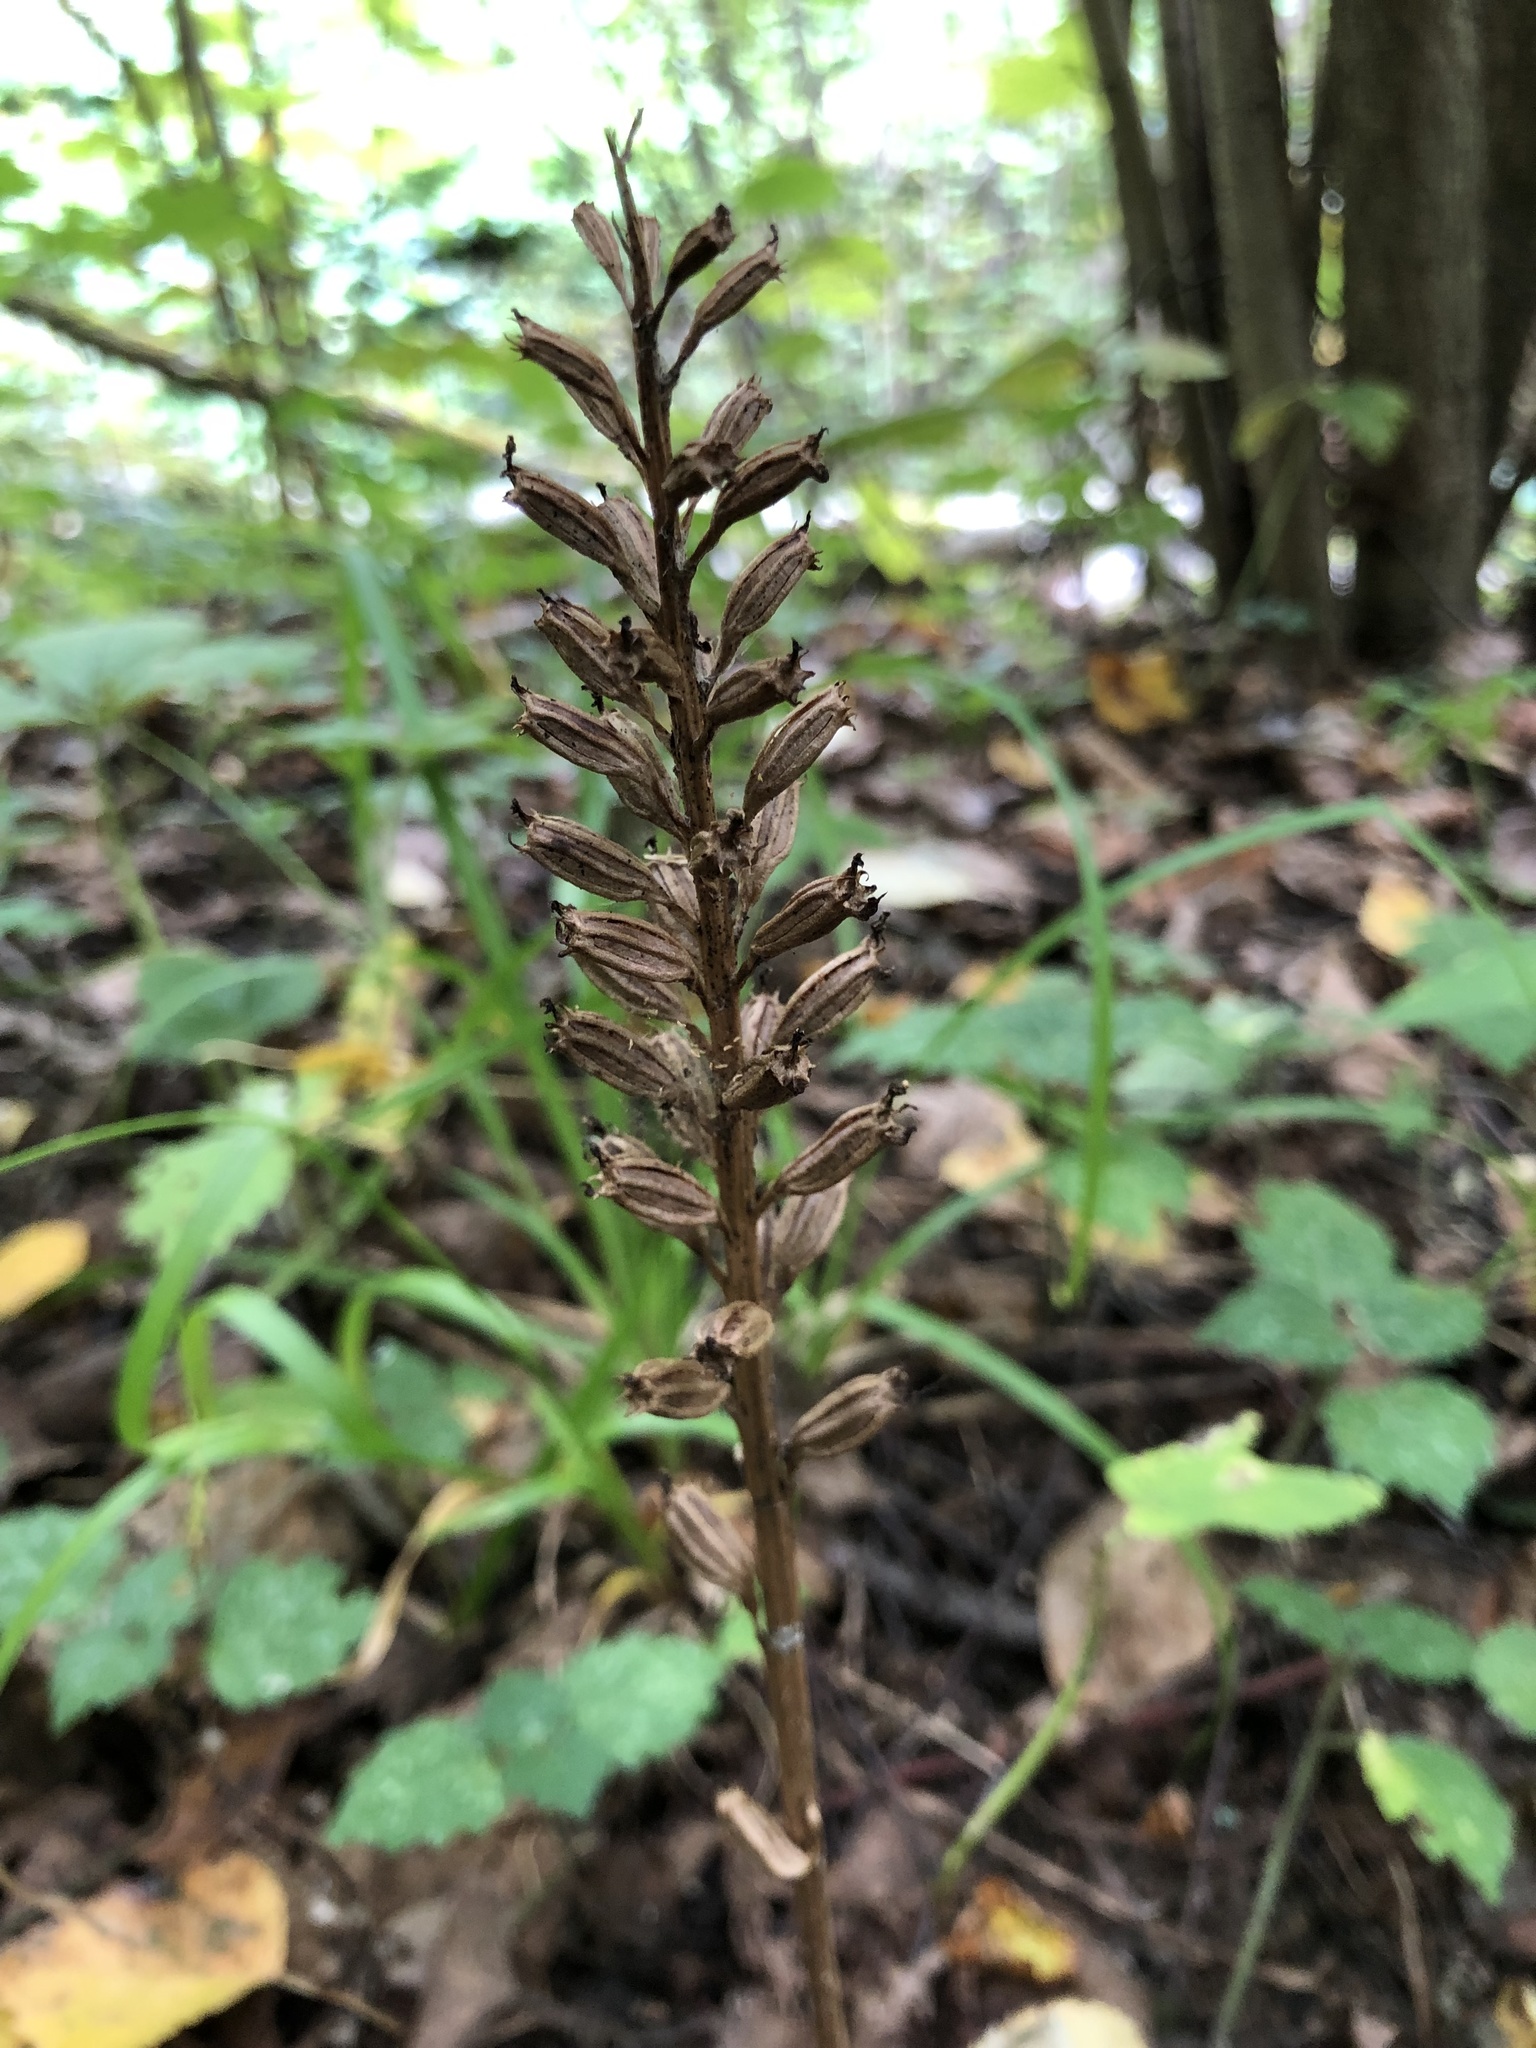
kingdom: Plantae
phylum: Tracheophyta
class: Liliopsida
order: Asparagales
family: Orchidaceae
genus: Neottia
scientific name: Neottia nidus-avis
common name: Bird's-nest orchid
